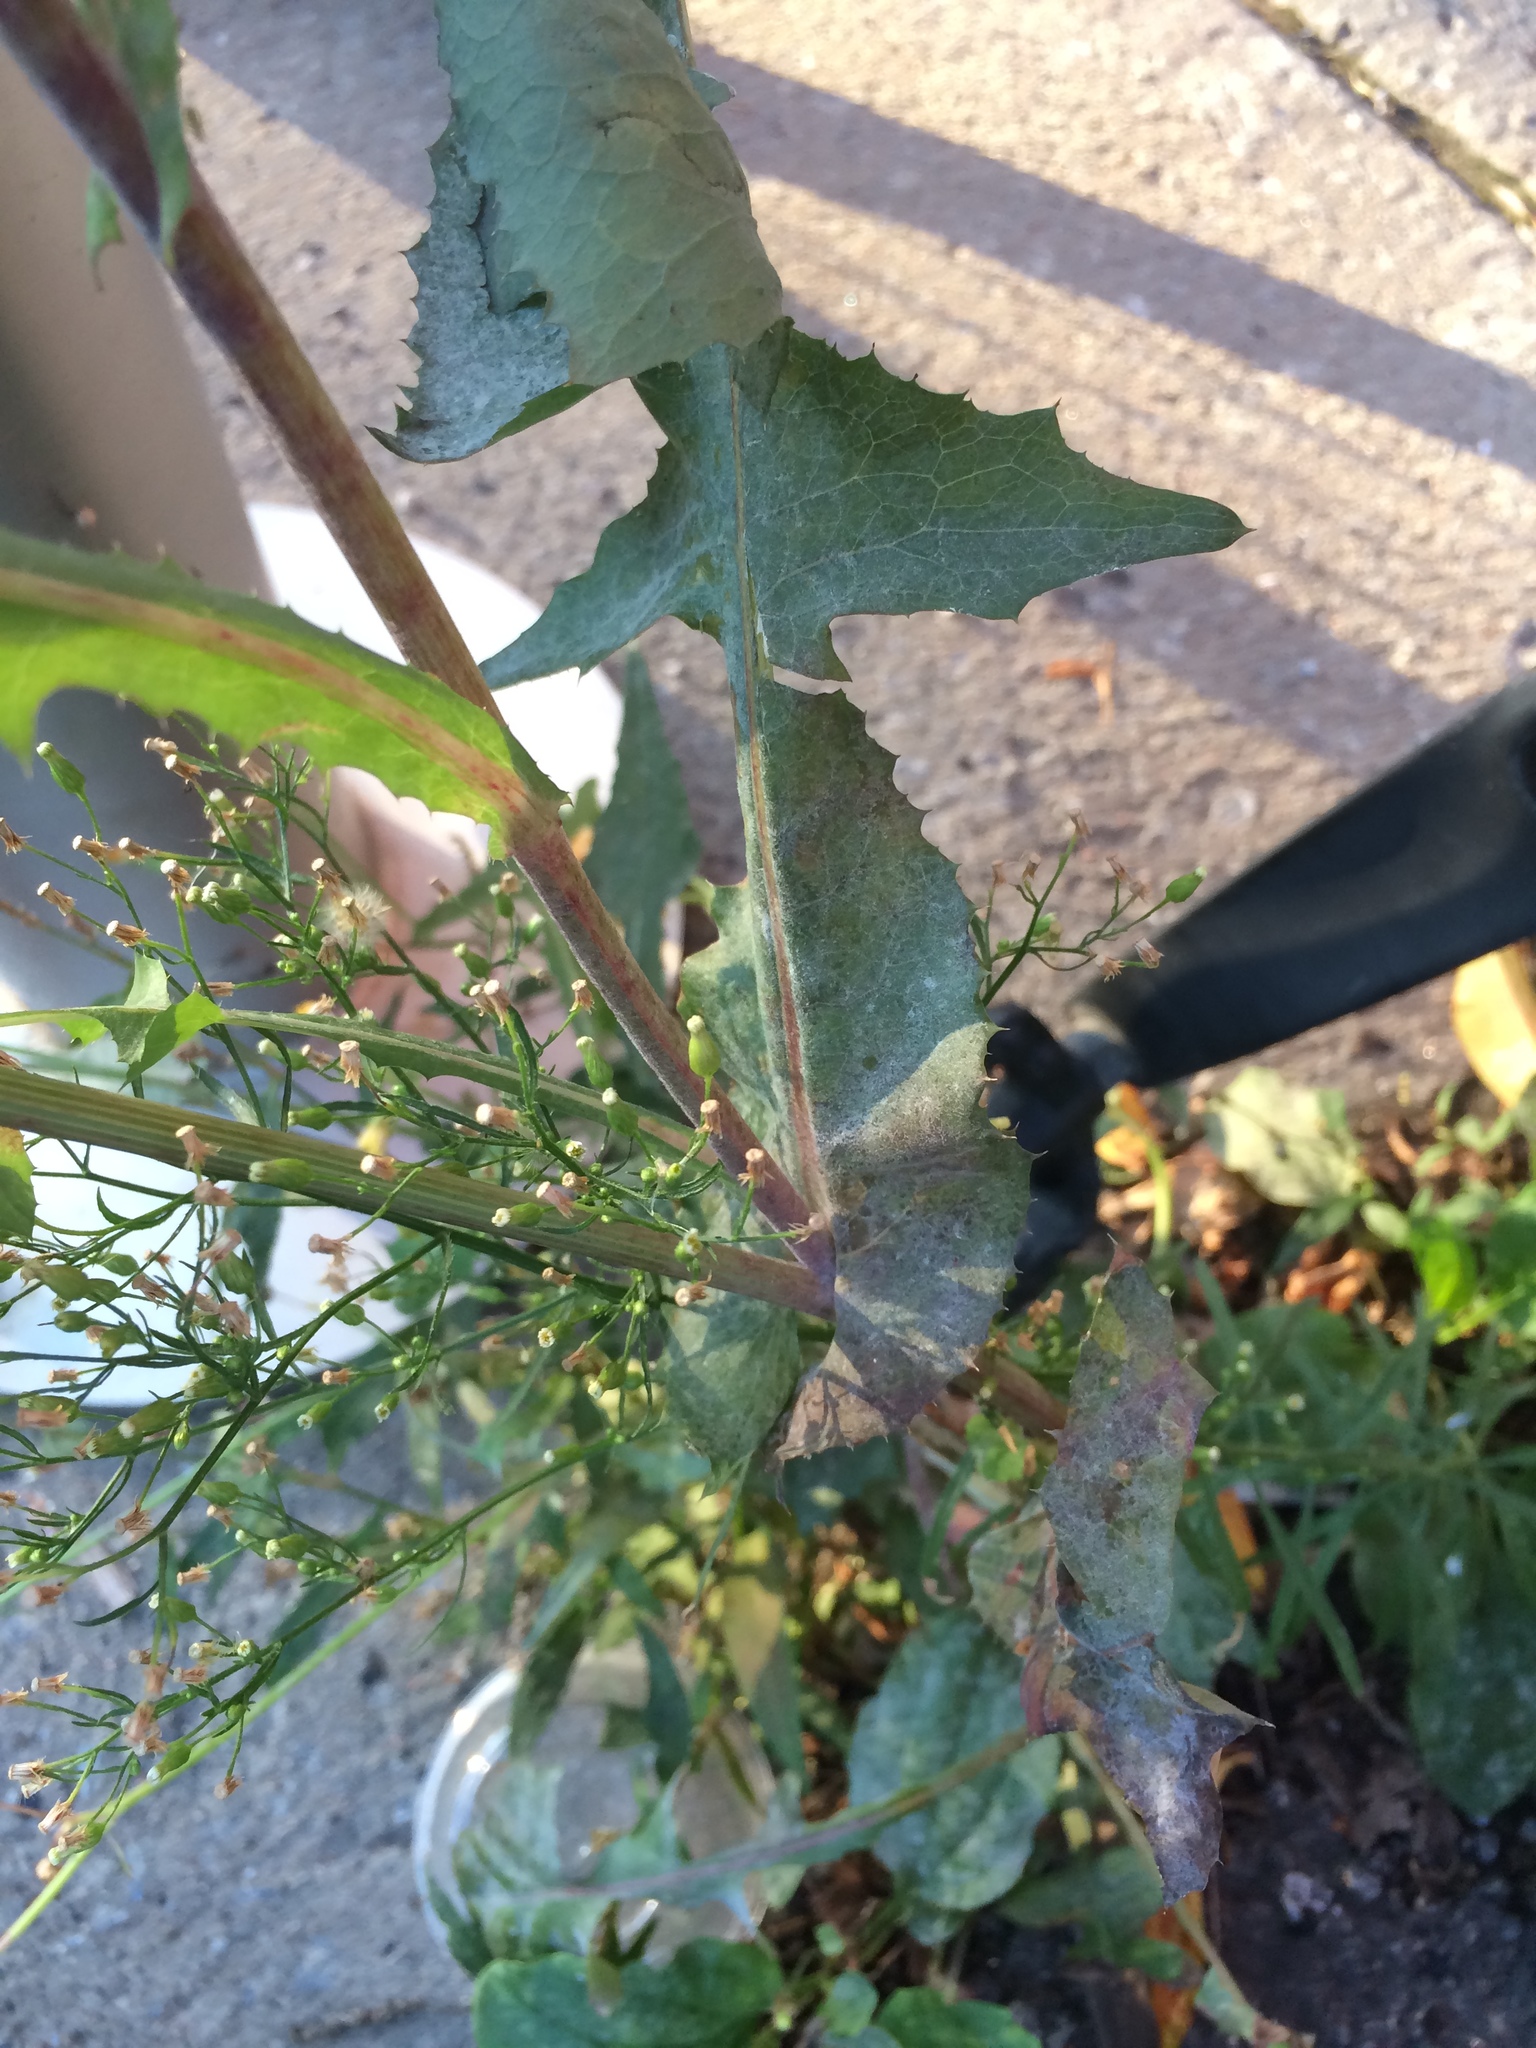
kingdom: Plantae
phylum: Tracheophyta
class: Magnoliopsida
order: Asterales
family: Asteraceae
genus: Sonchus
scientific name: Sonchus oleraceus
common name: Common sowthistle
